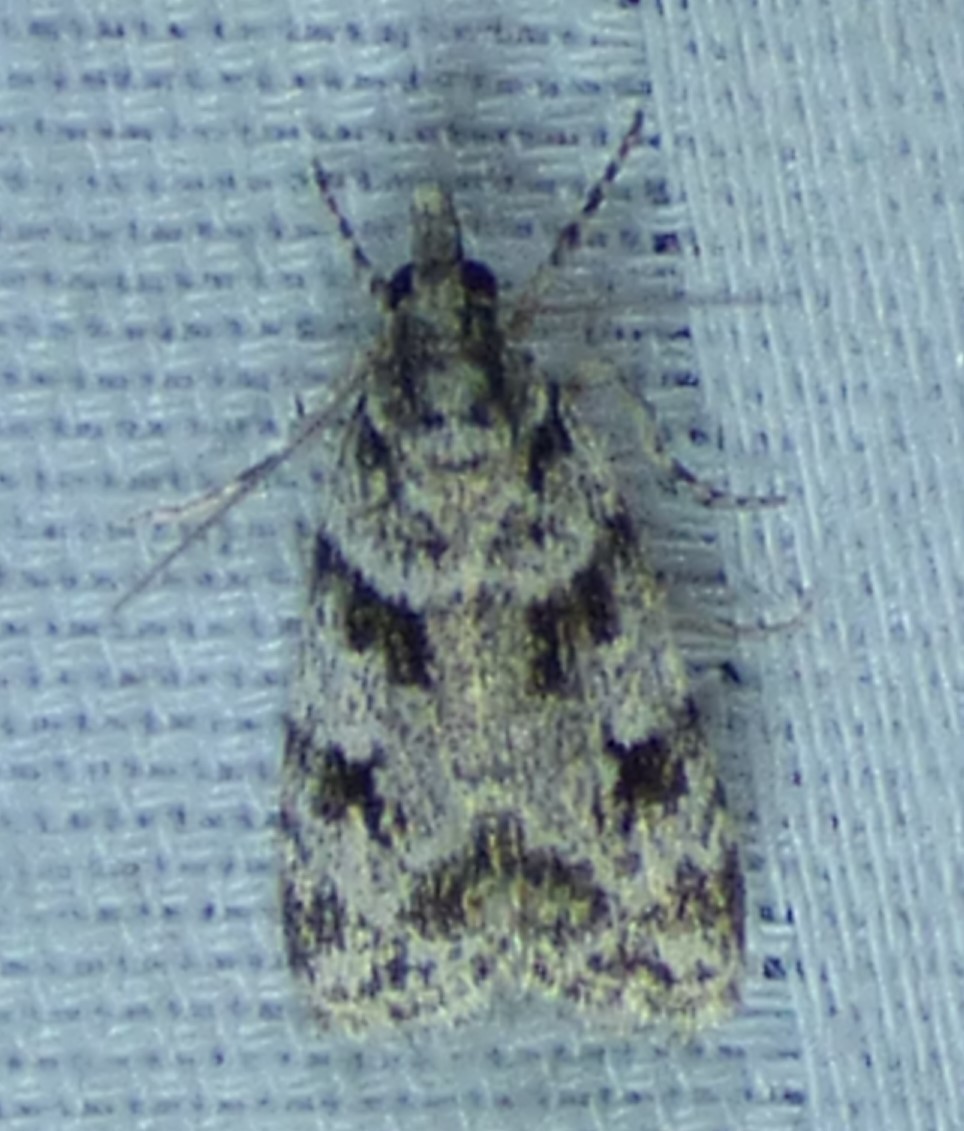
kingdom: Animalia
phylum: Arthropoda
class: Insecta
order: Lepidoptera
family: Crambidae
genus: Scoparia
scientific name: Scoparia biplagialis
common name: Double-striped scoparia moth
